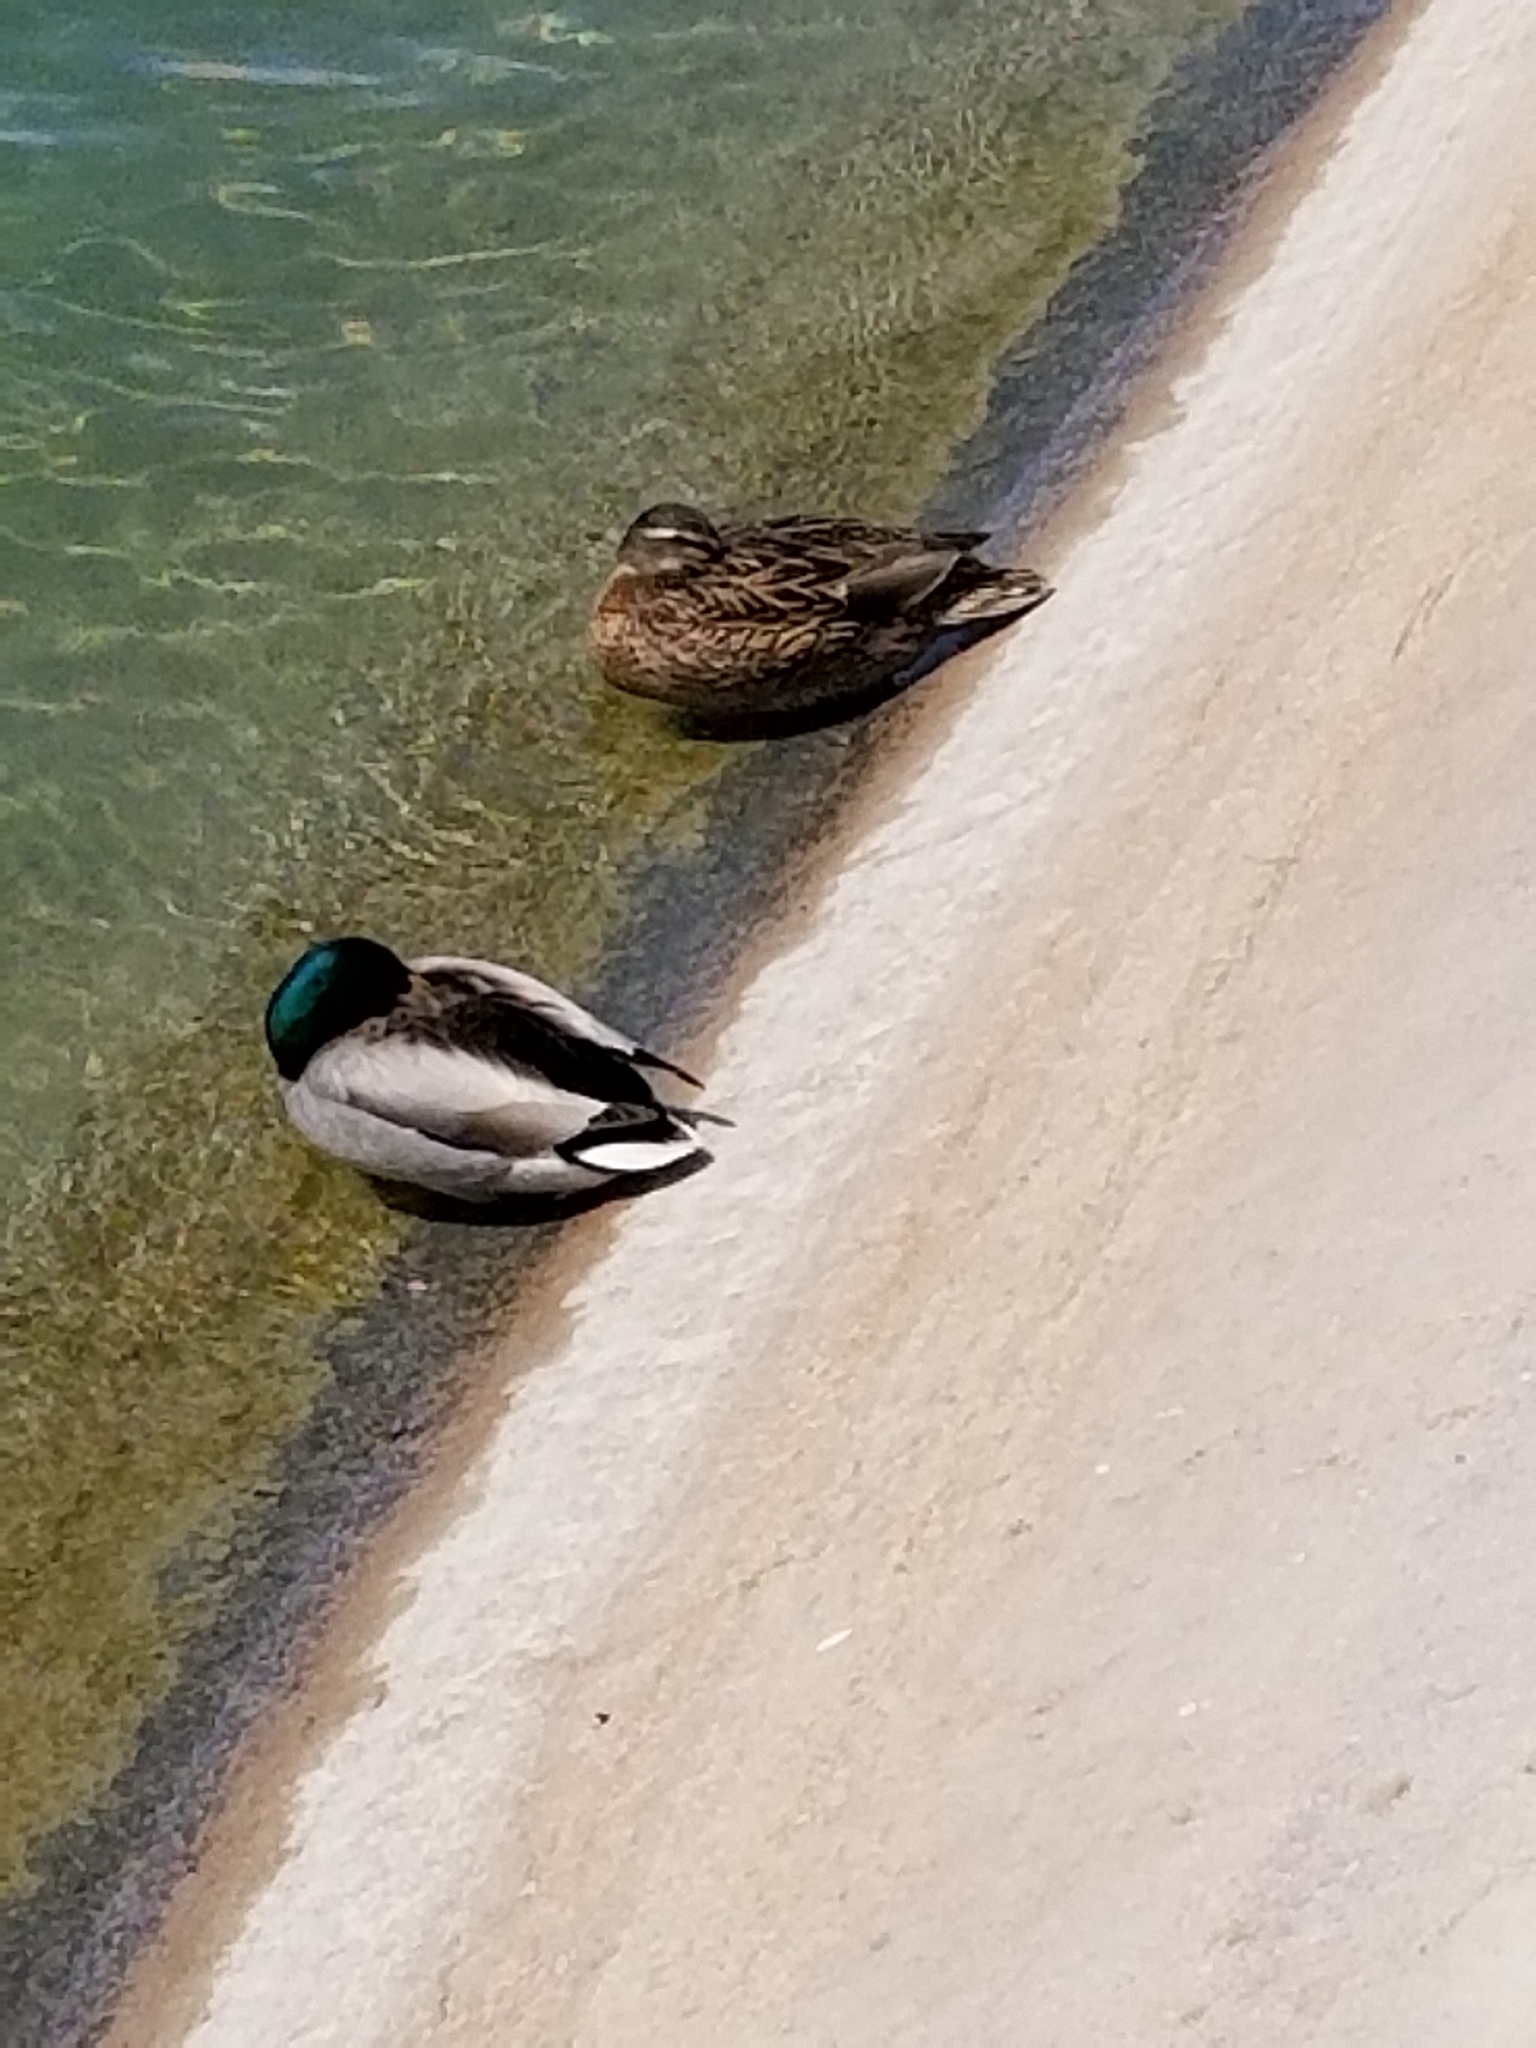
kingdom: Animalia
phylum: Chordata
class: Aves
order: Anseriformes
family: Anatidae
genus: Anas
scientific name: Anas platyrhynchos
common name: Mallard
